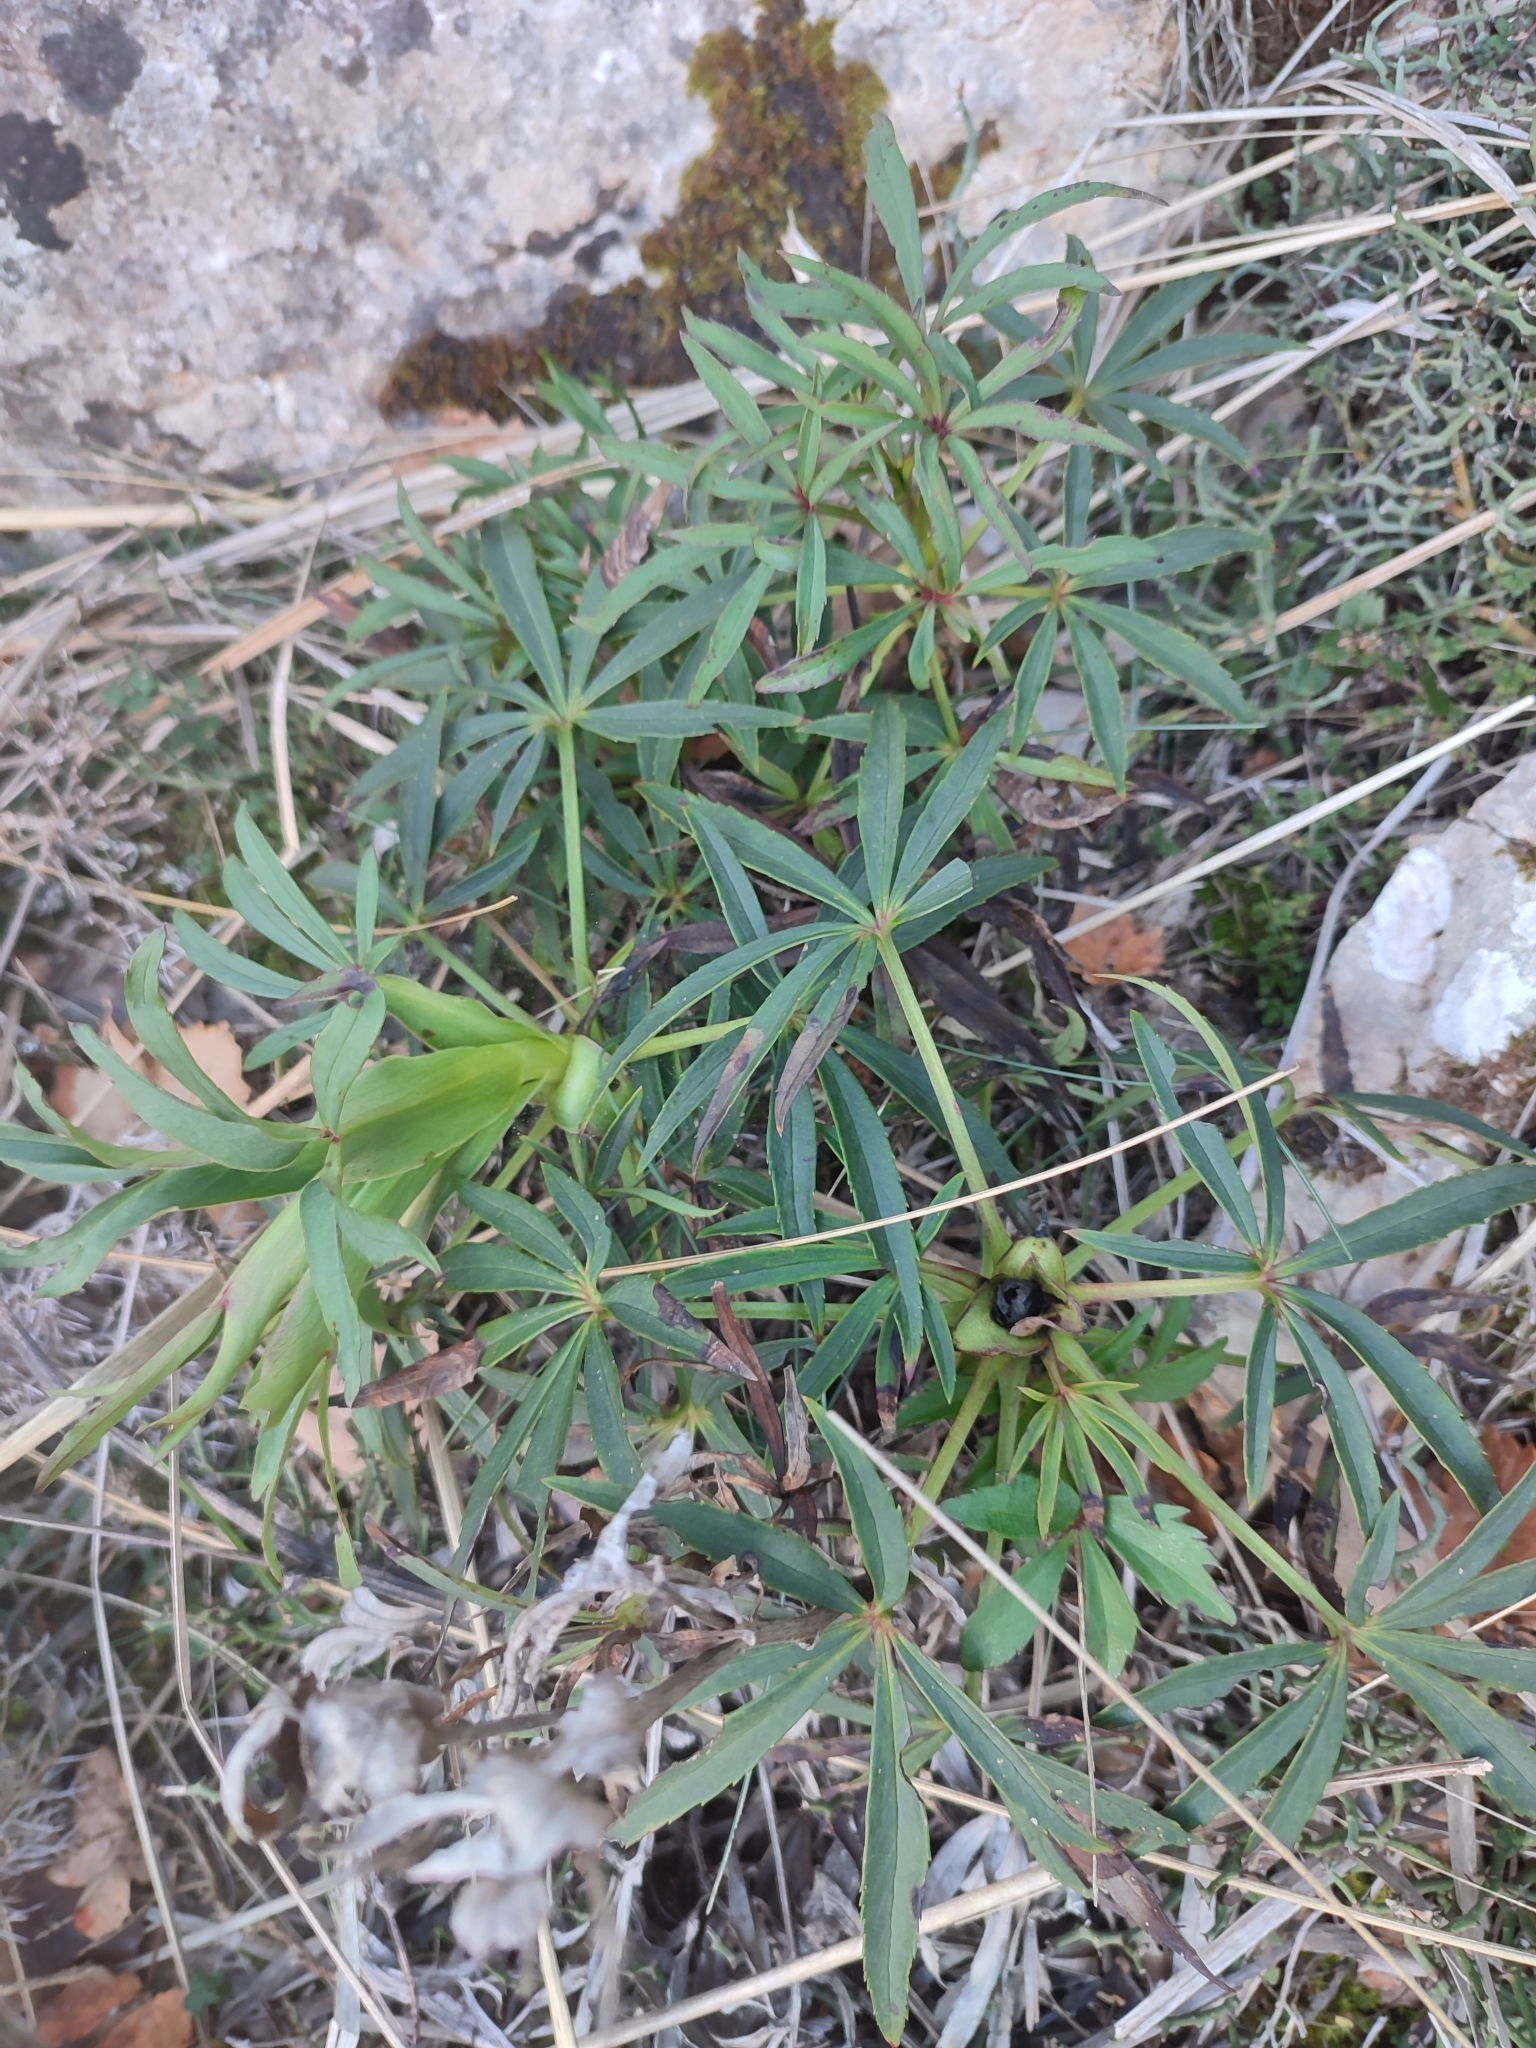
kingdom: Plantae
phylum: Tracheophyta
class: Magnoliopsida
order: Ranunculales
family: Ranunculaceae
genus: Helleborus
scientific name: Helleborus foetidus
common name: Stinking hellebore
